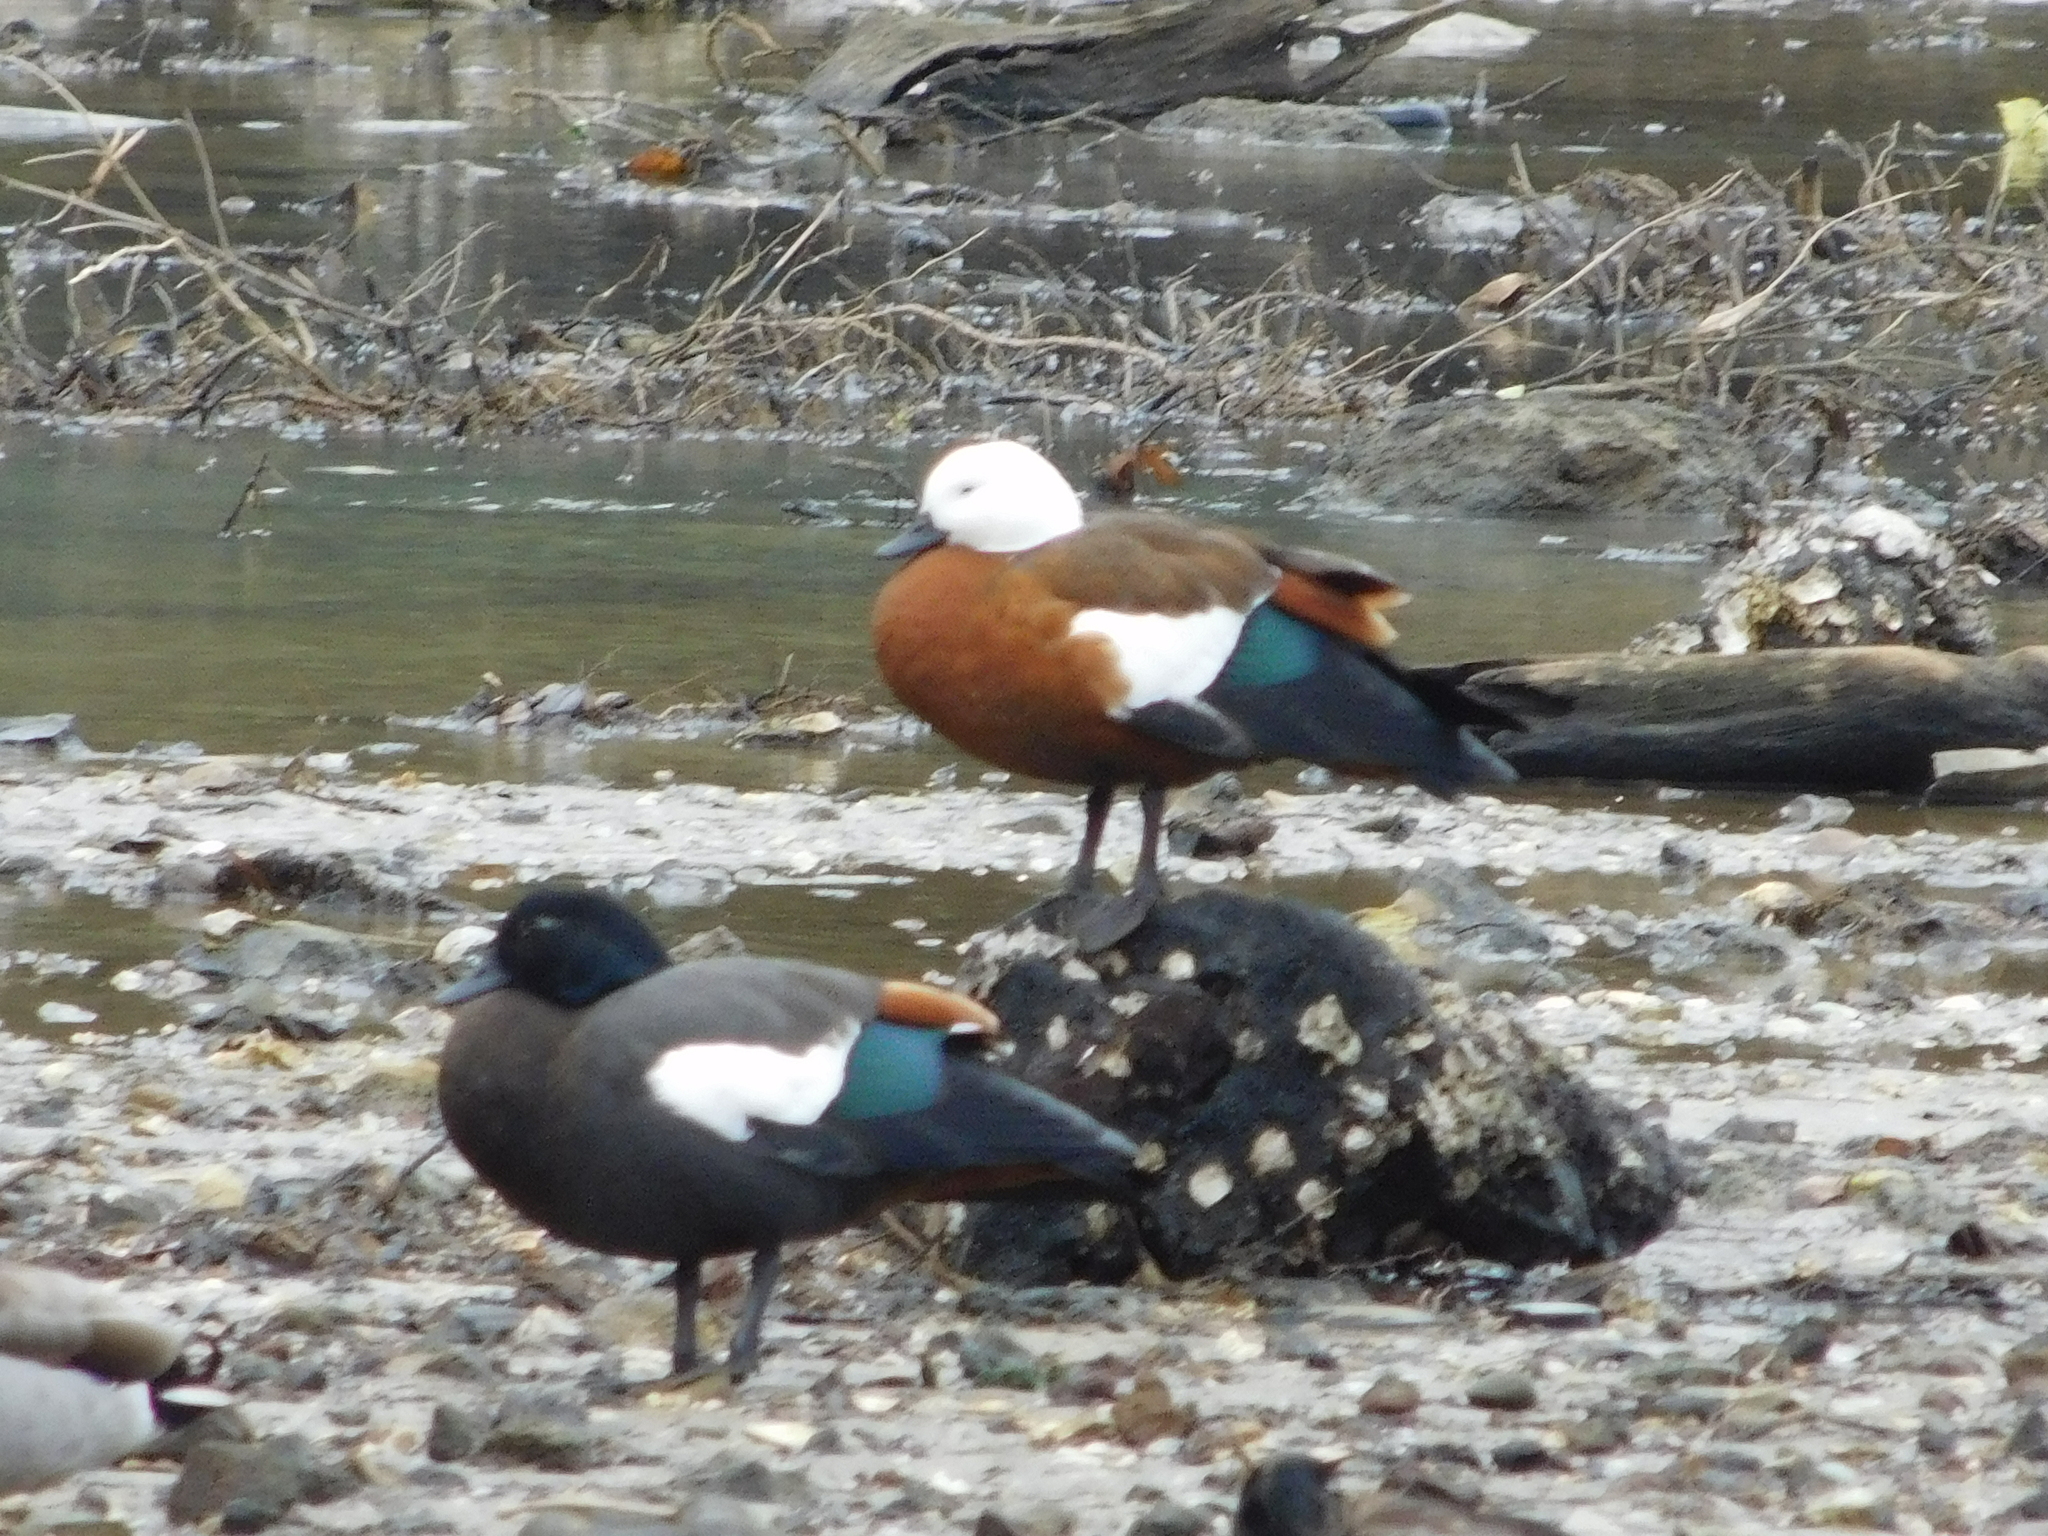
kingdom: Animalia
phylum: Chordata
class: Aves
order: Anseriformes
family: Anatidae
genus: Tadorna
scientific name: Tadorna variegata
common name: Paradise shelduck
